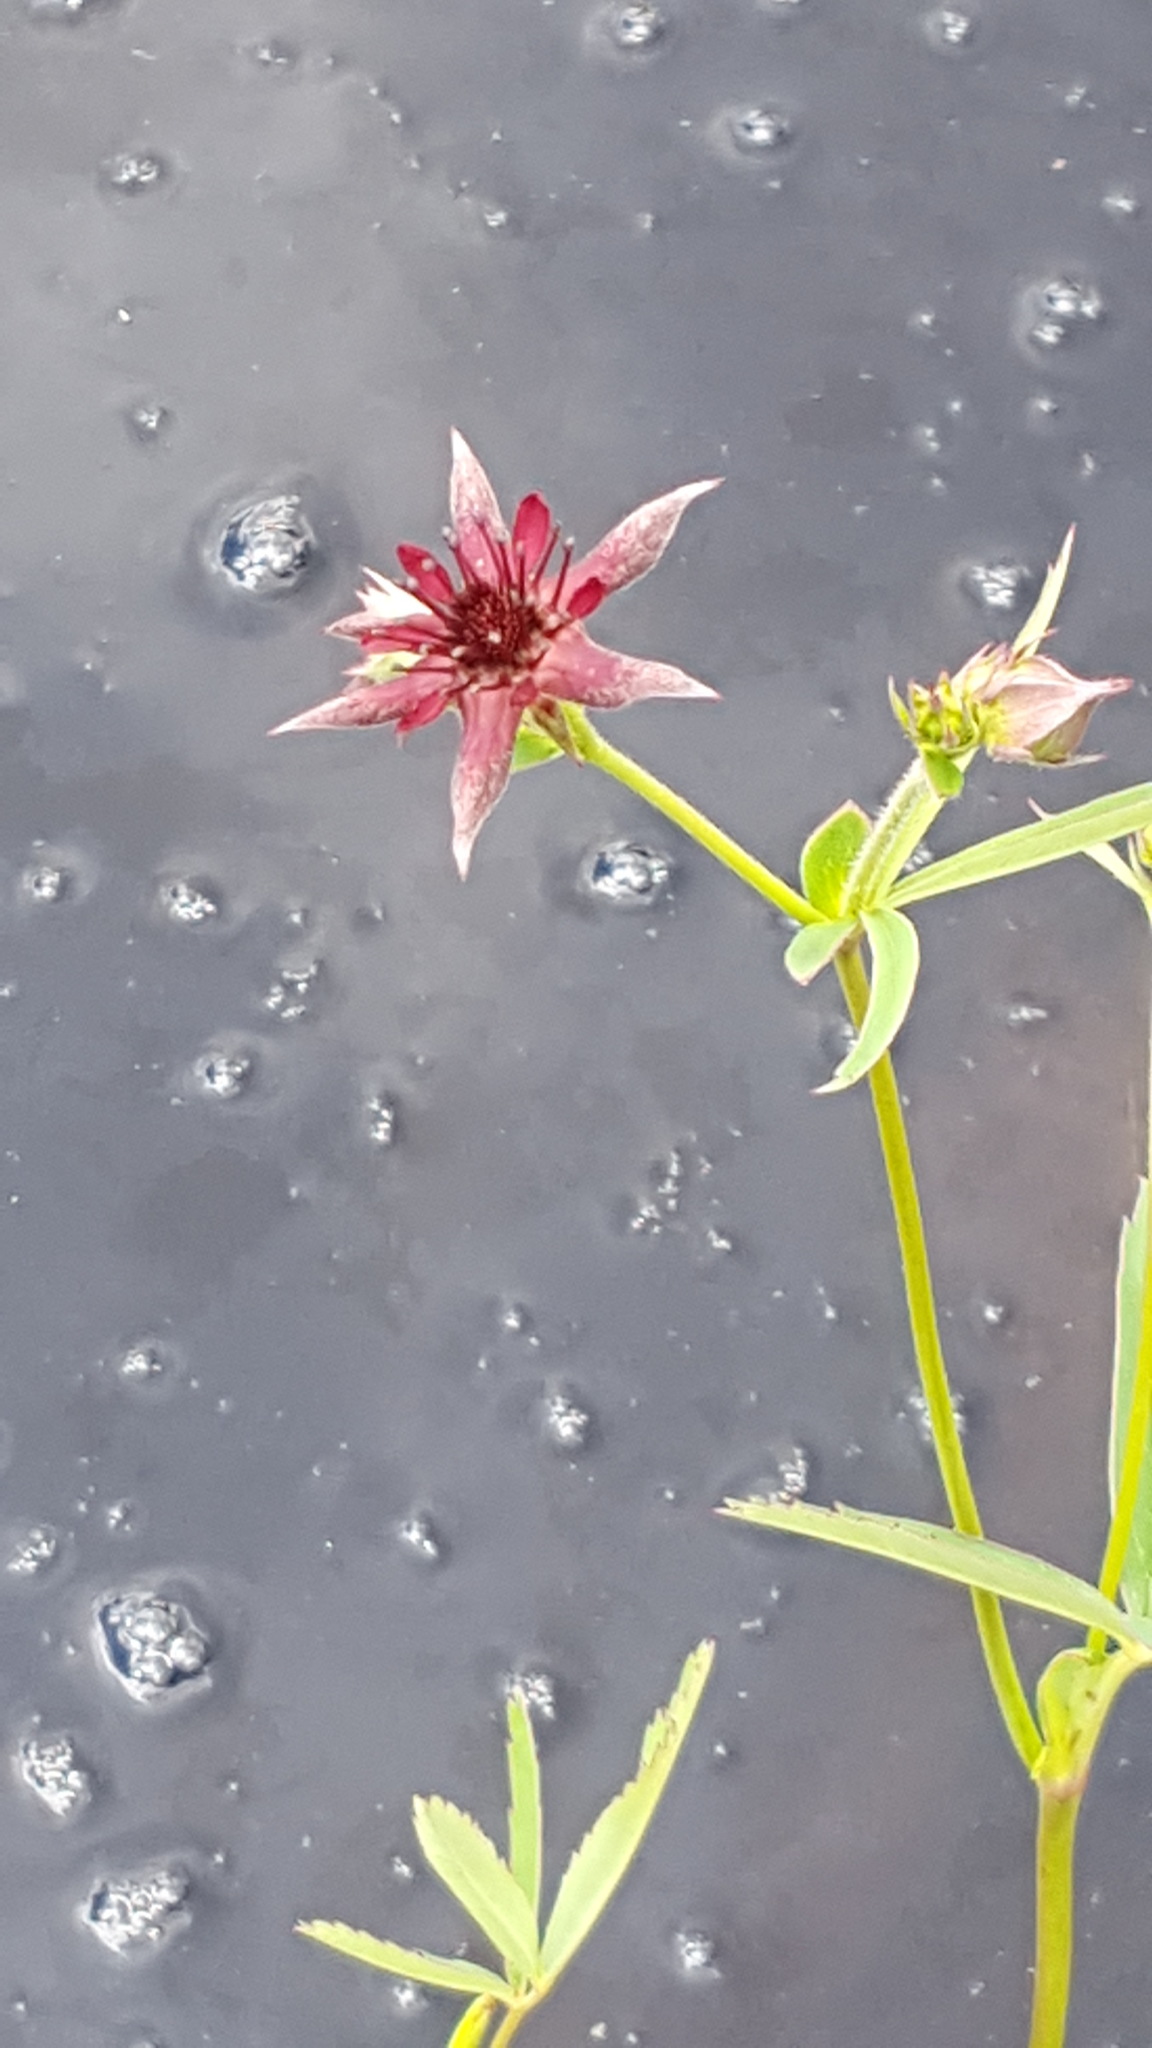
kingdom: Plantae
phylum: Tracheophyta
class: Magnoliopsida
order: Rosales
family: Rosaceae
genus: Comarum
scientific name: Comarum palustre
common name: Marsh cinquefoil
